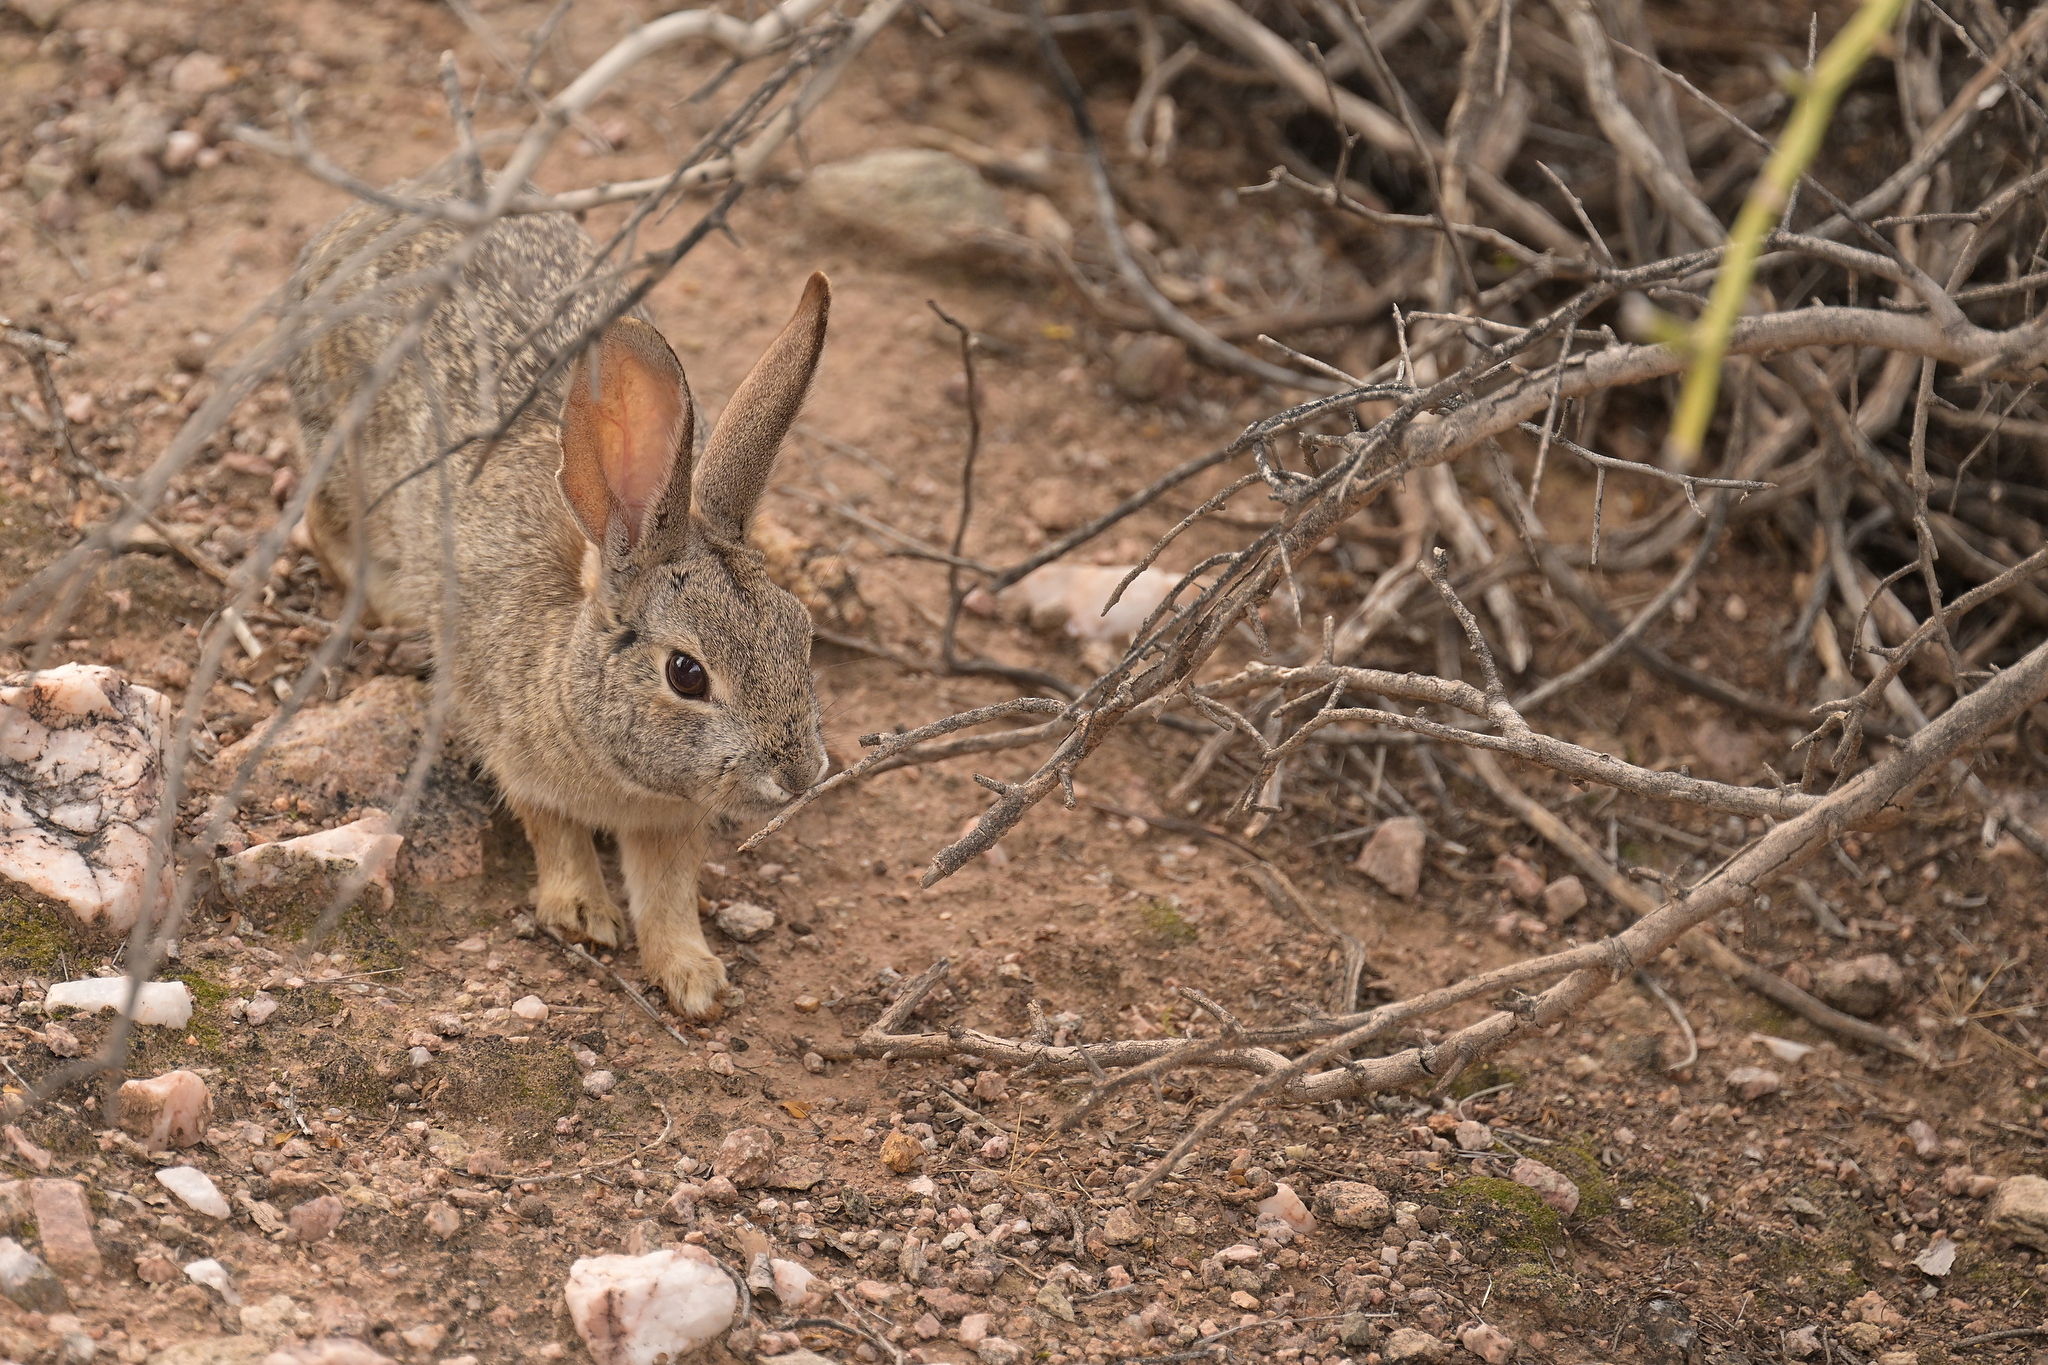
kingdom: Animalia
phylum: Chordata
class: Mammalia
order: Lagomorpha
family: Leporidae
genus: Sylvilagus
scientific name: Sylvilagus audubonii
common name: Desert cottontail
